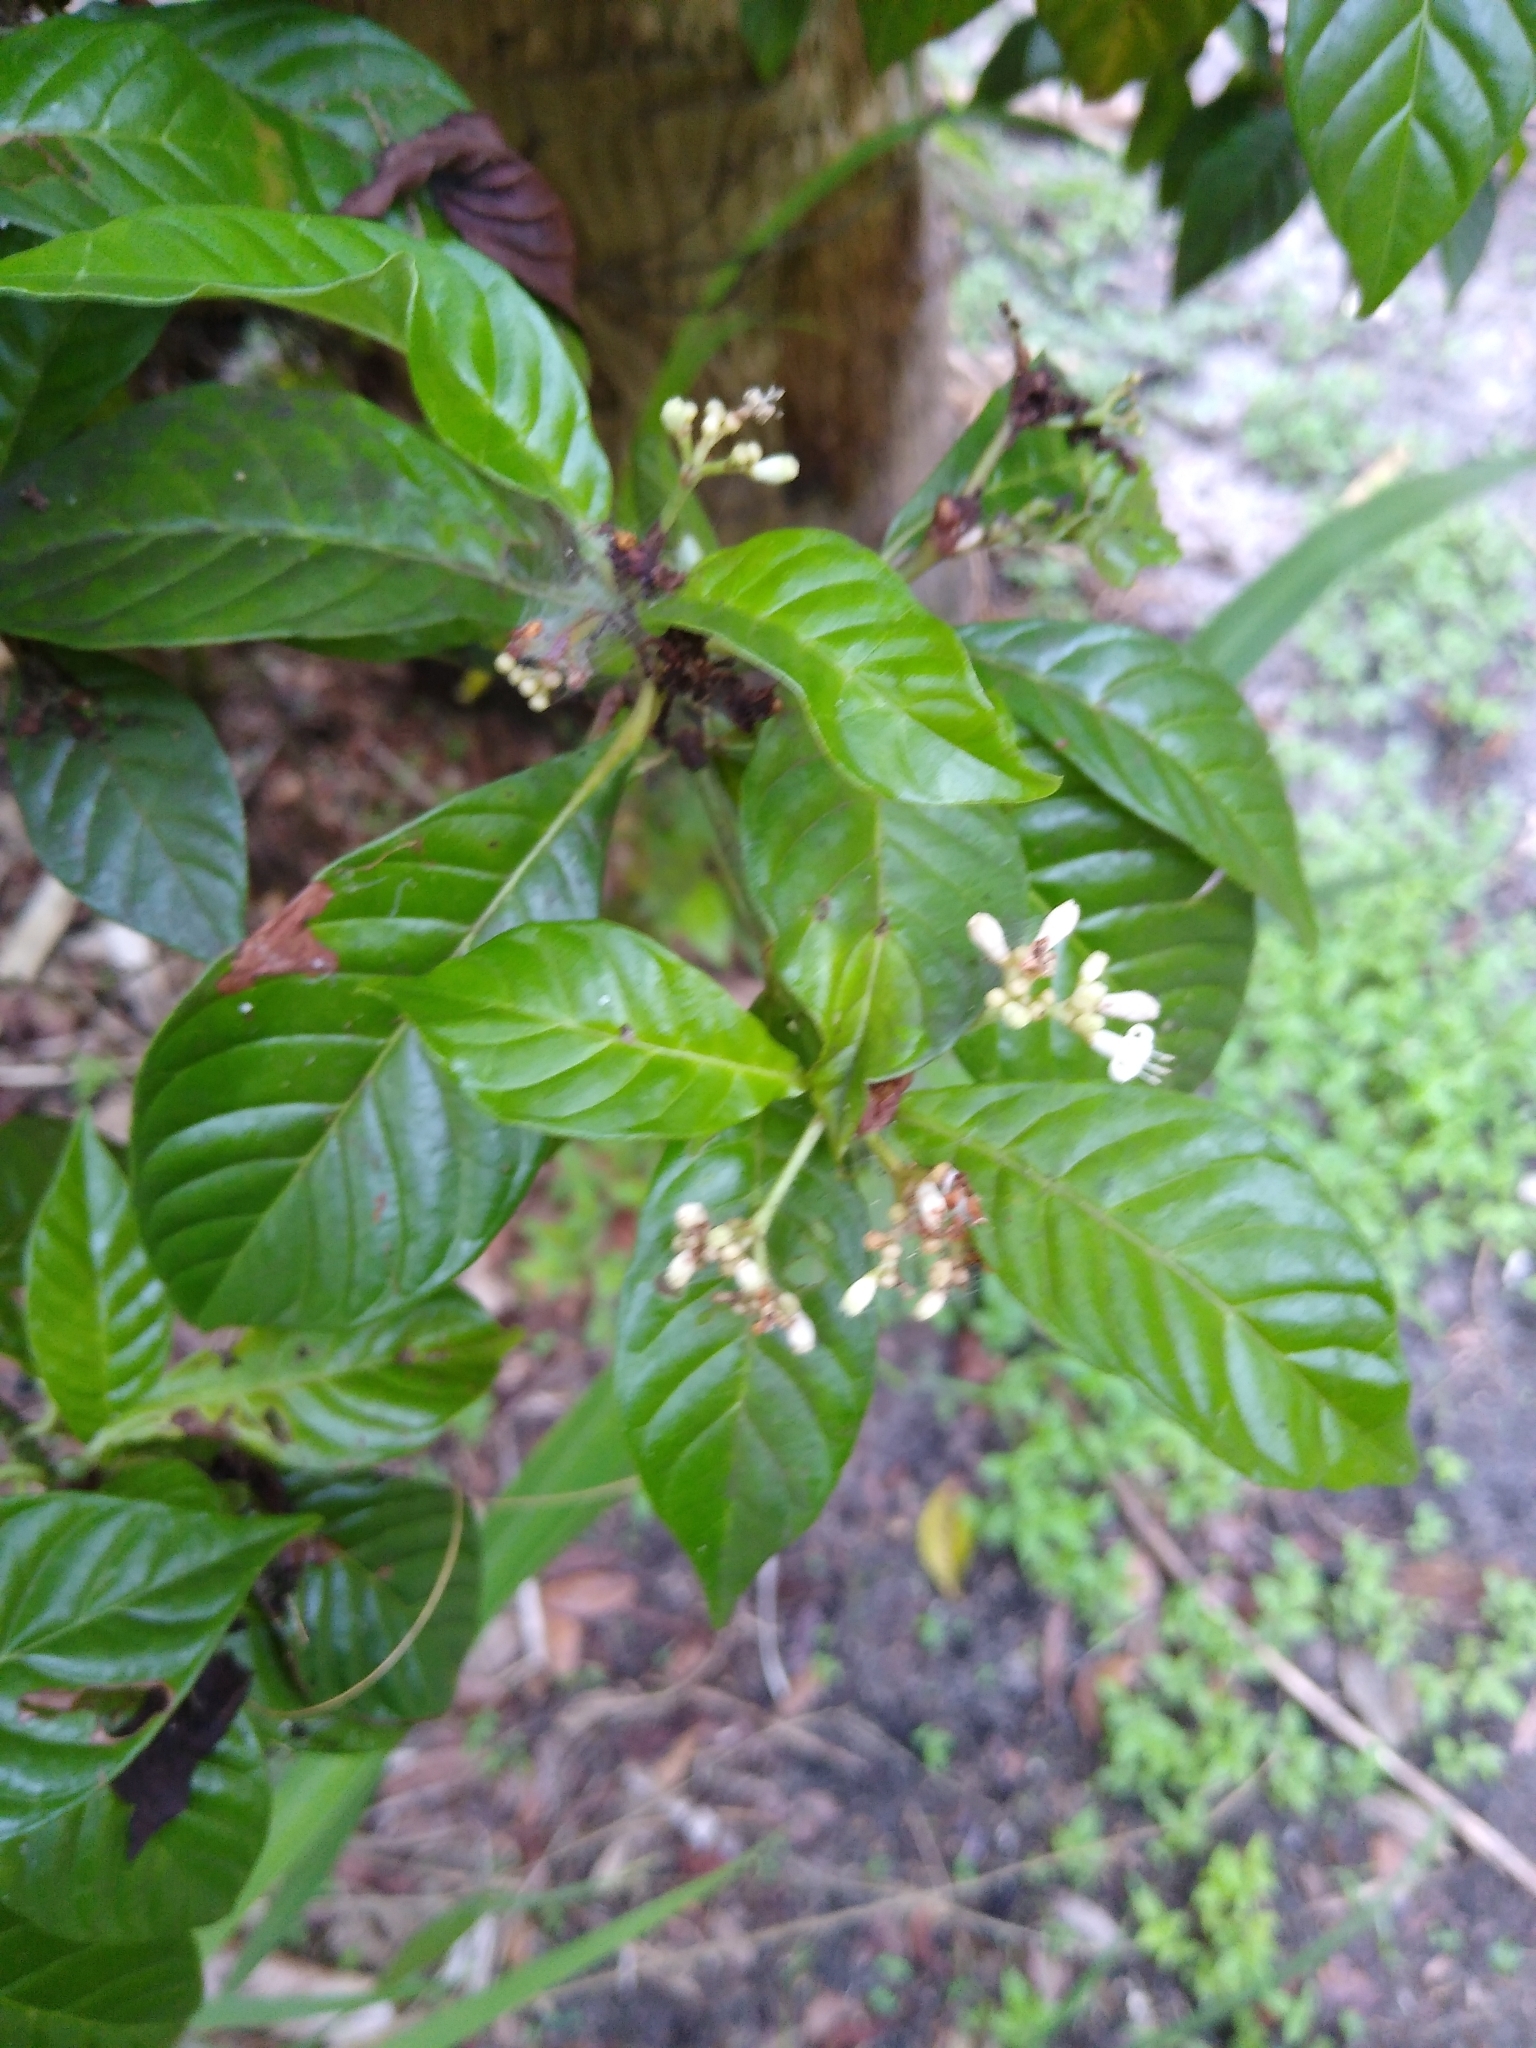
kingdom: Plantae
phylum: Tracheophyta
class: Magnoliopsida
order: Gentianales
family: Rubiaceae
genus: Psychotria
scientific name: Psychotria nervosa
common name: Bastard cankerberry
